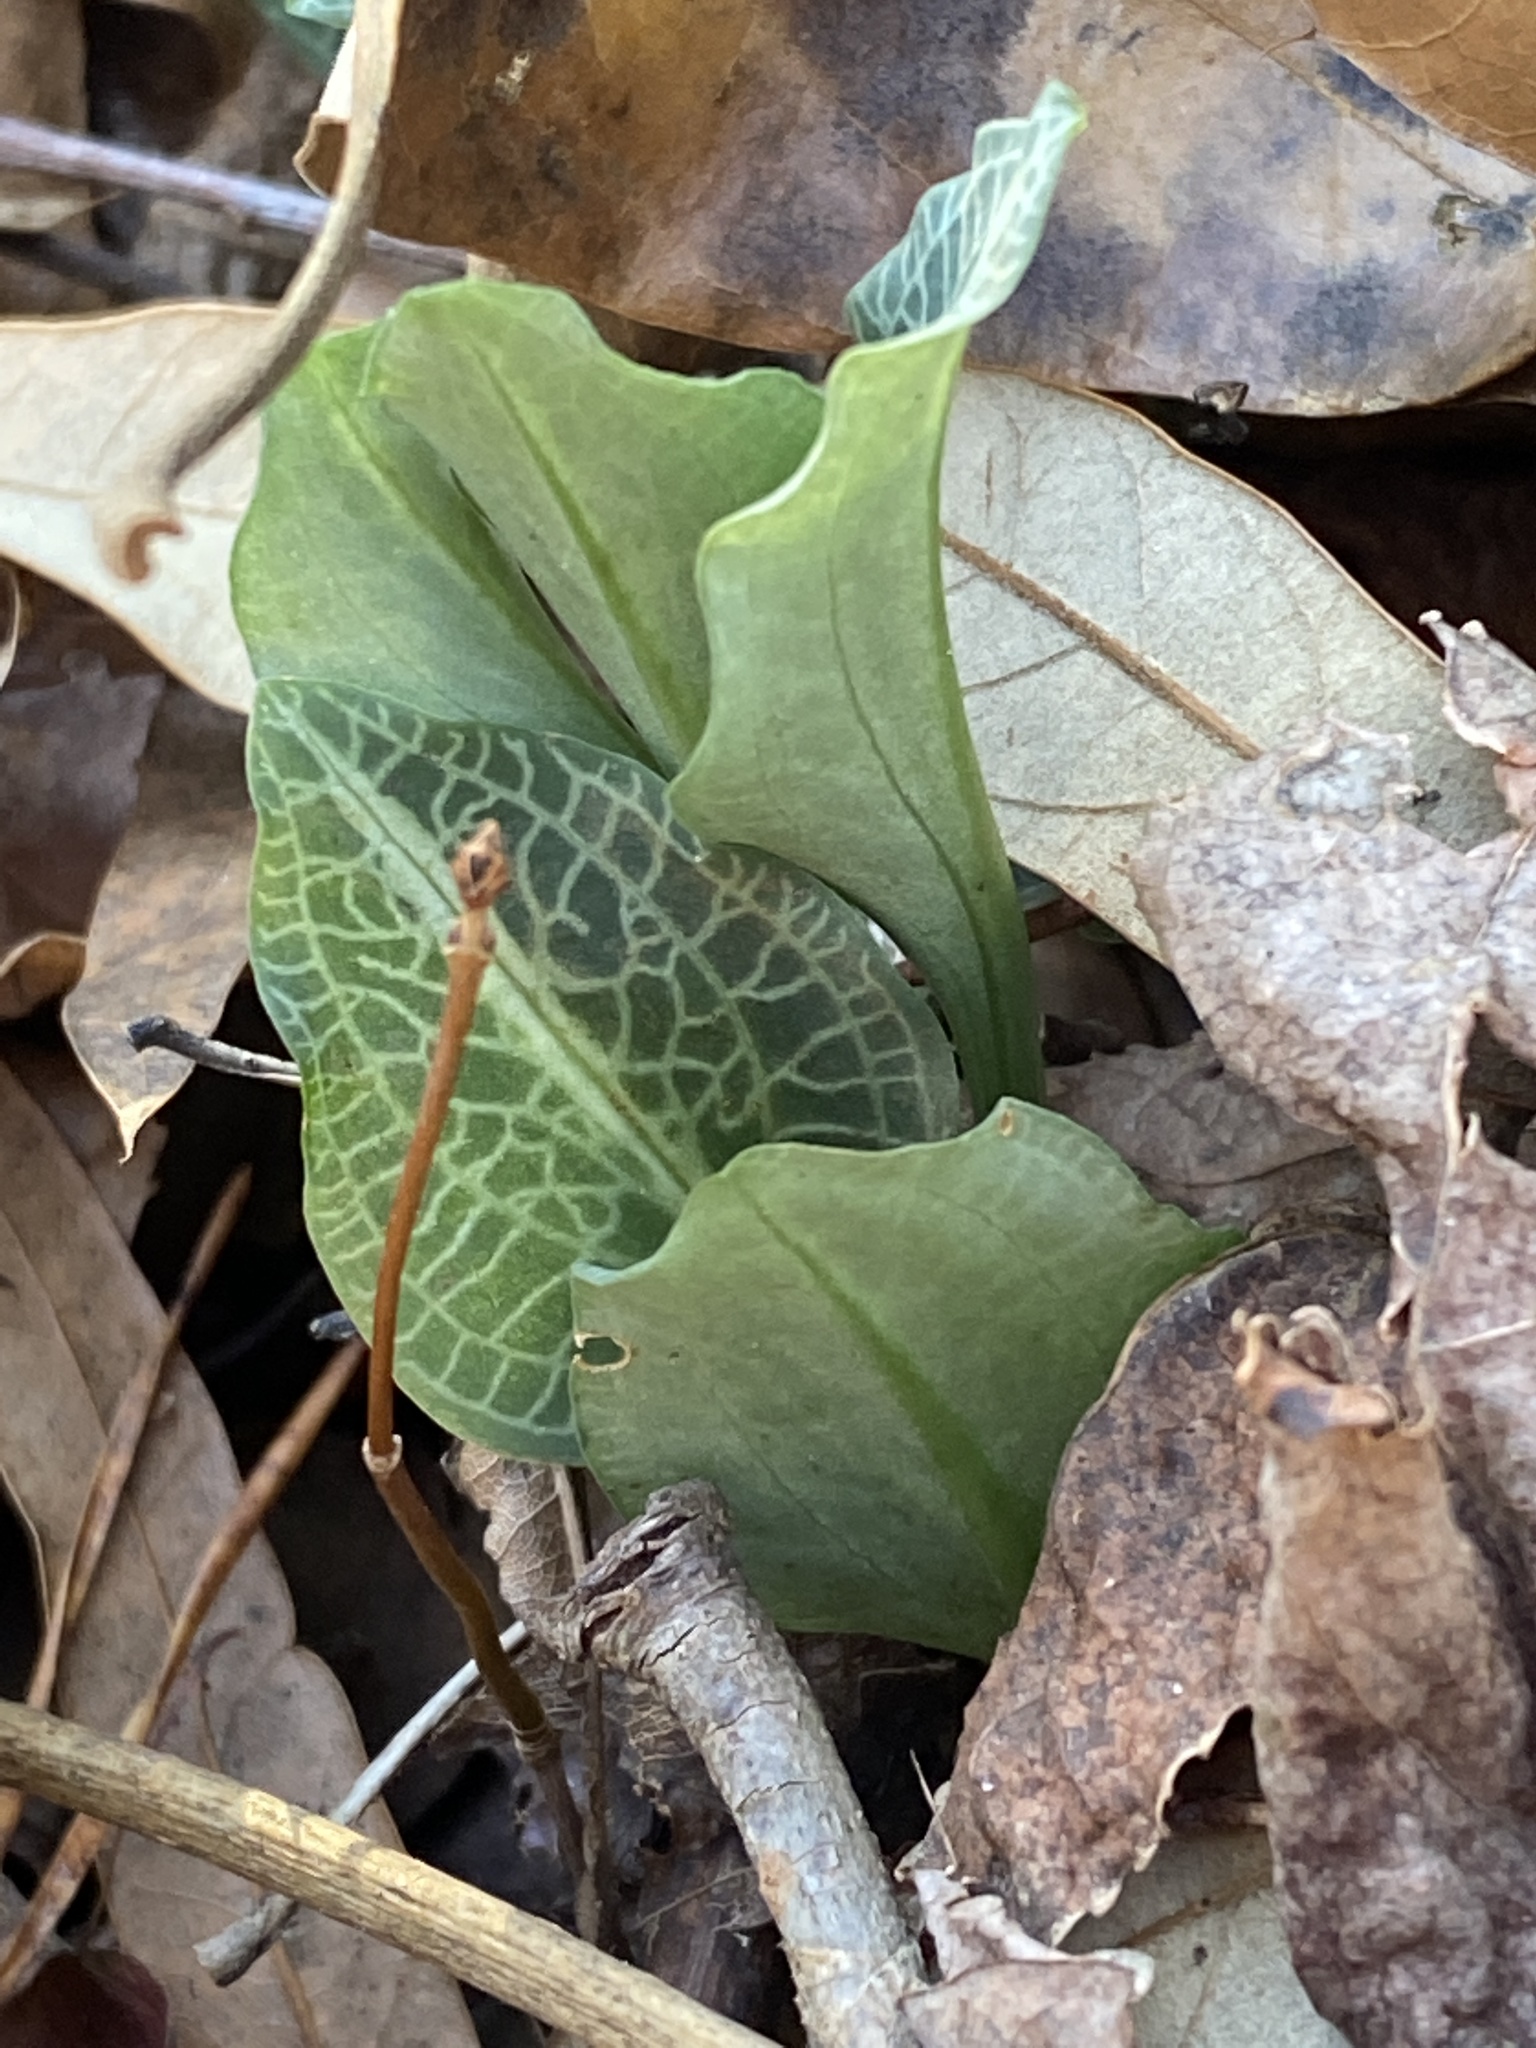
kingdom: Plantae
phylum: Tracheophyta
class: Liliopsida
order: Asparagales
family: Orchidaceae
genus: Goodyera
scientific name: Goodyera pubescens
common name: Downy rattlesnake-plantain
